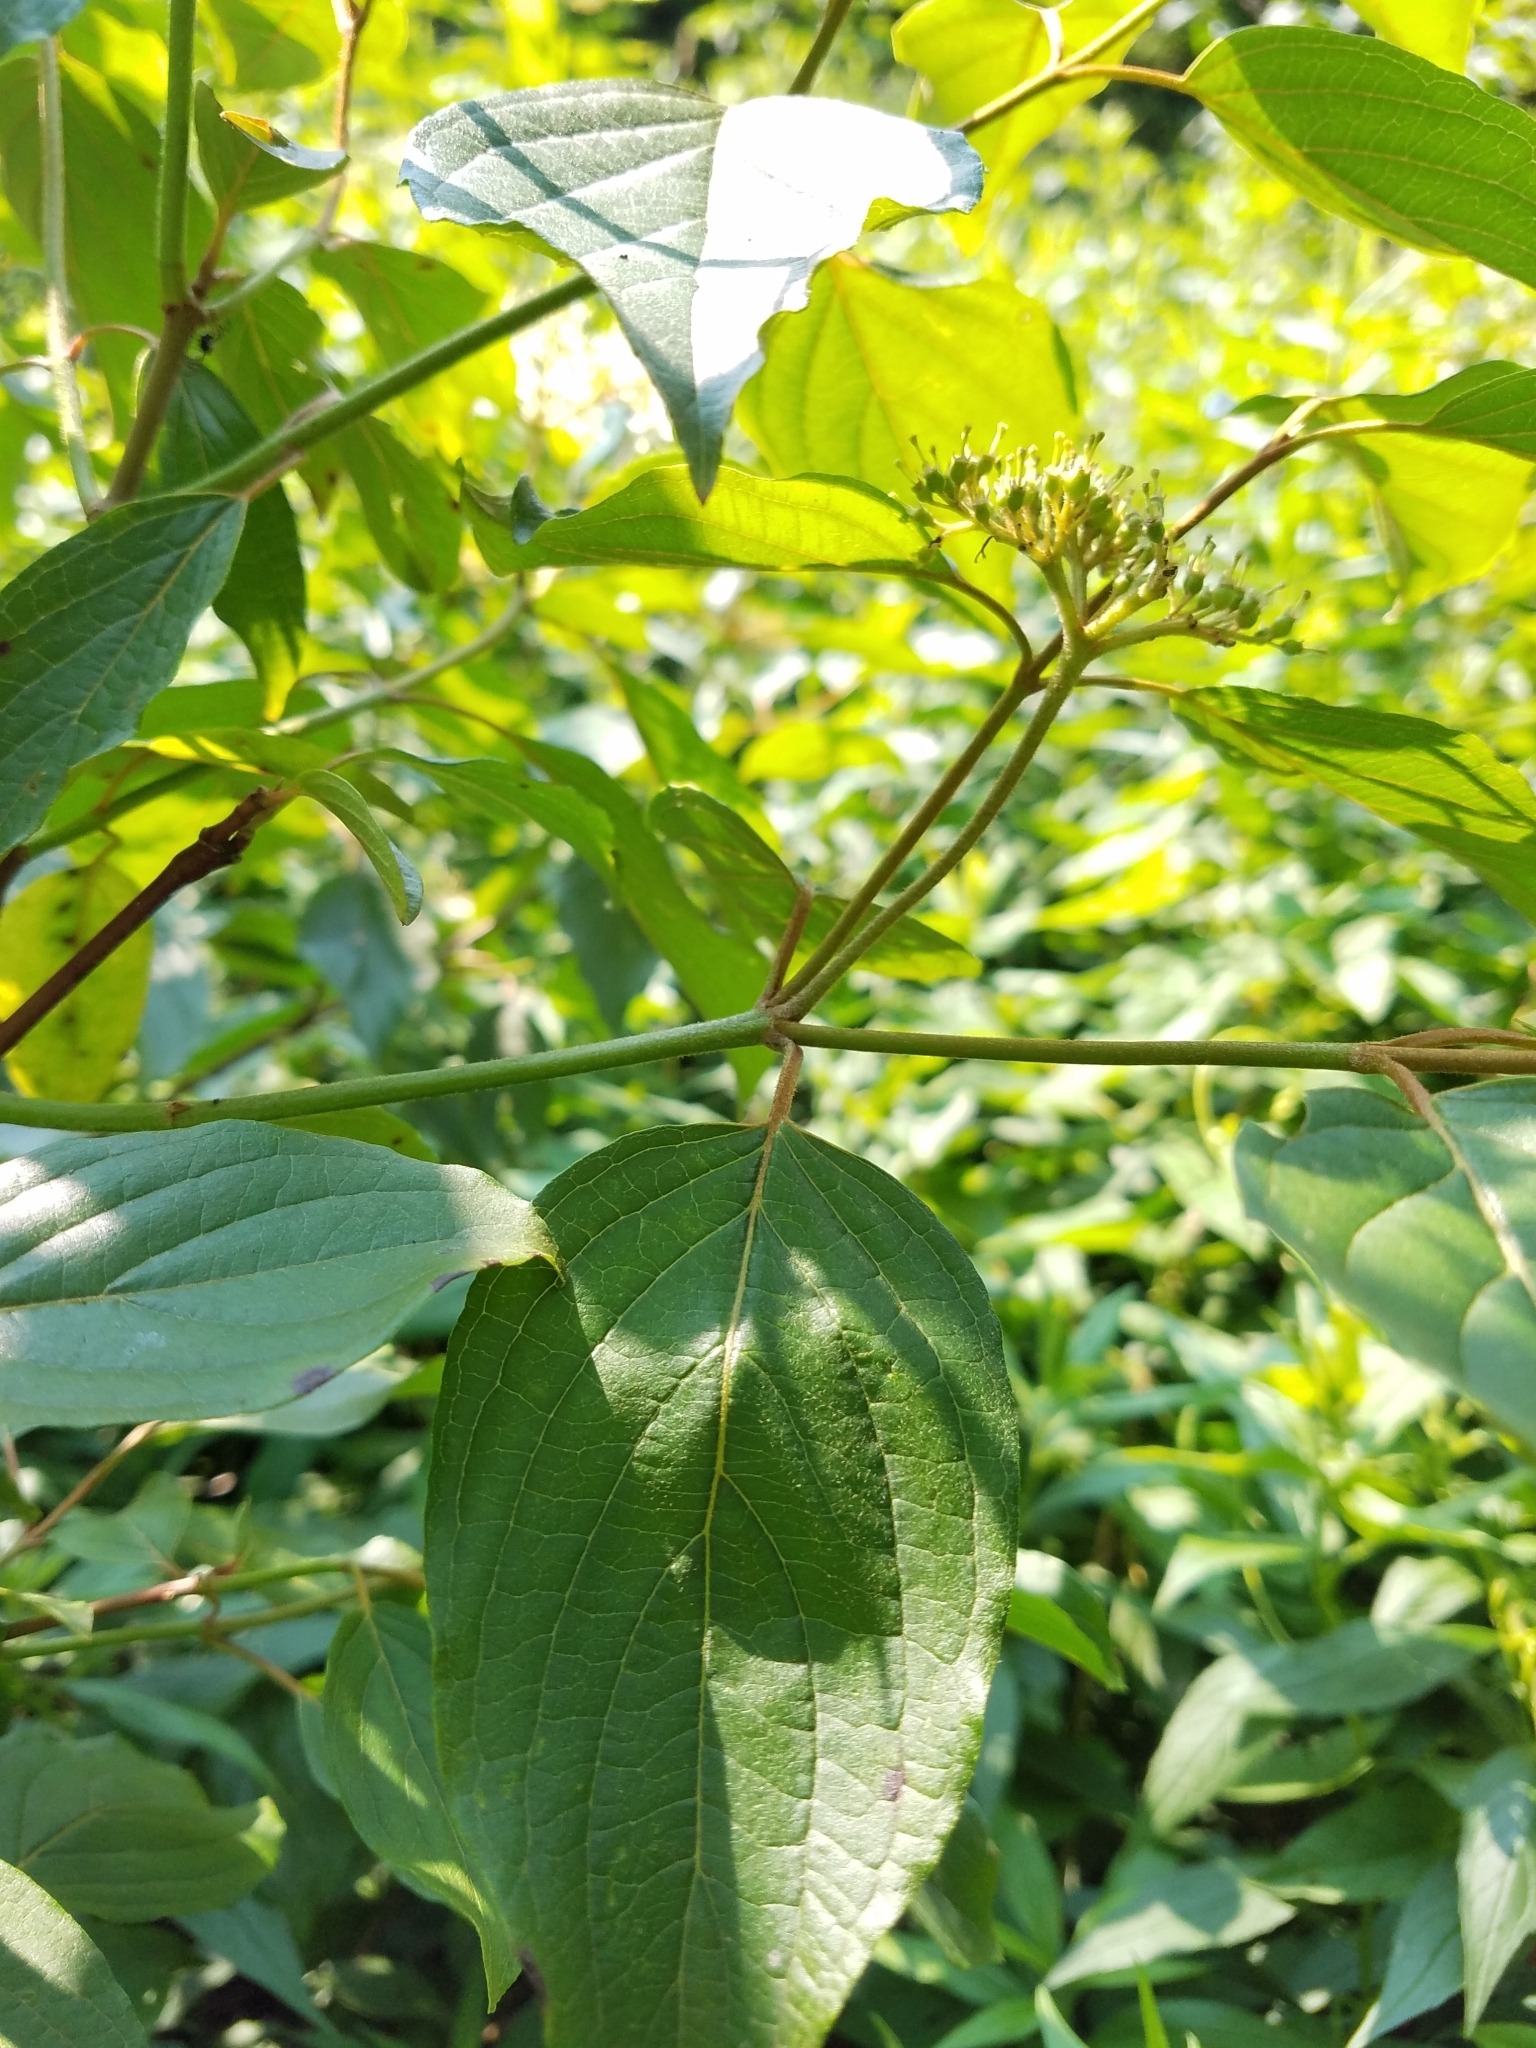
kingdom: Plantae
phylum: Tracheophyta
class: Magnoliopsida
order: Cornales
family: Cornaceae
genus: Cornus
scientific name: Cornus amomum
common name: Silky dogwood
